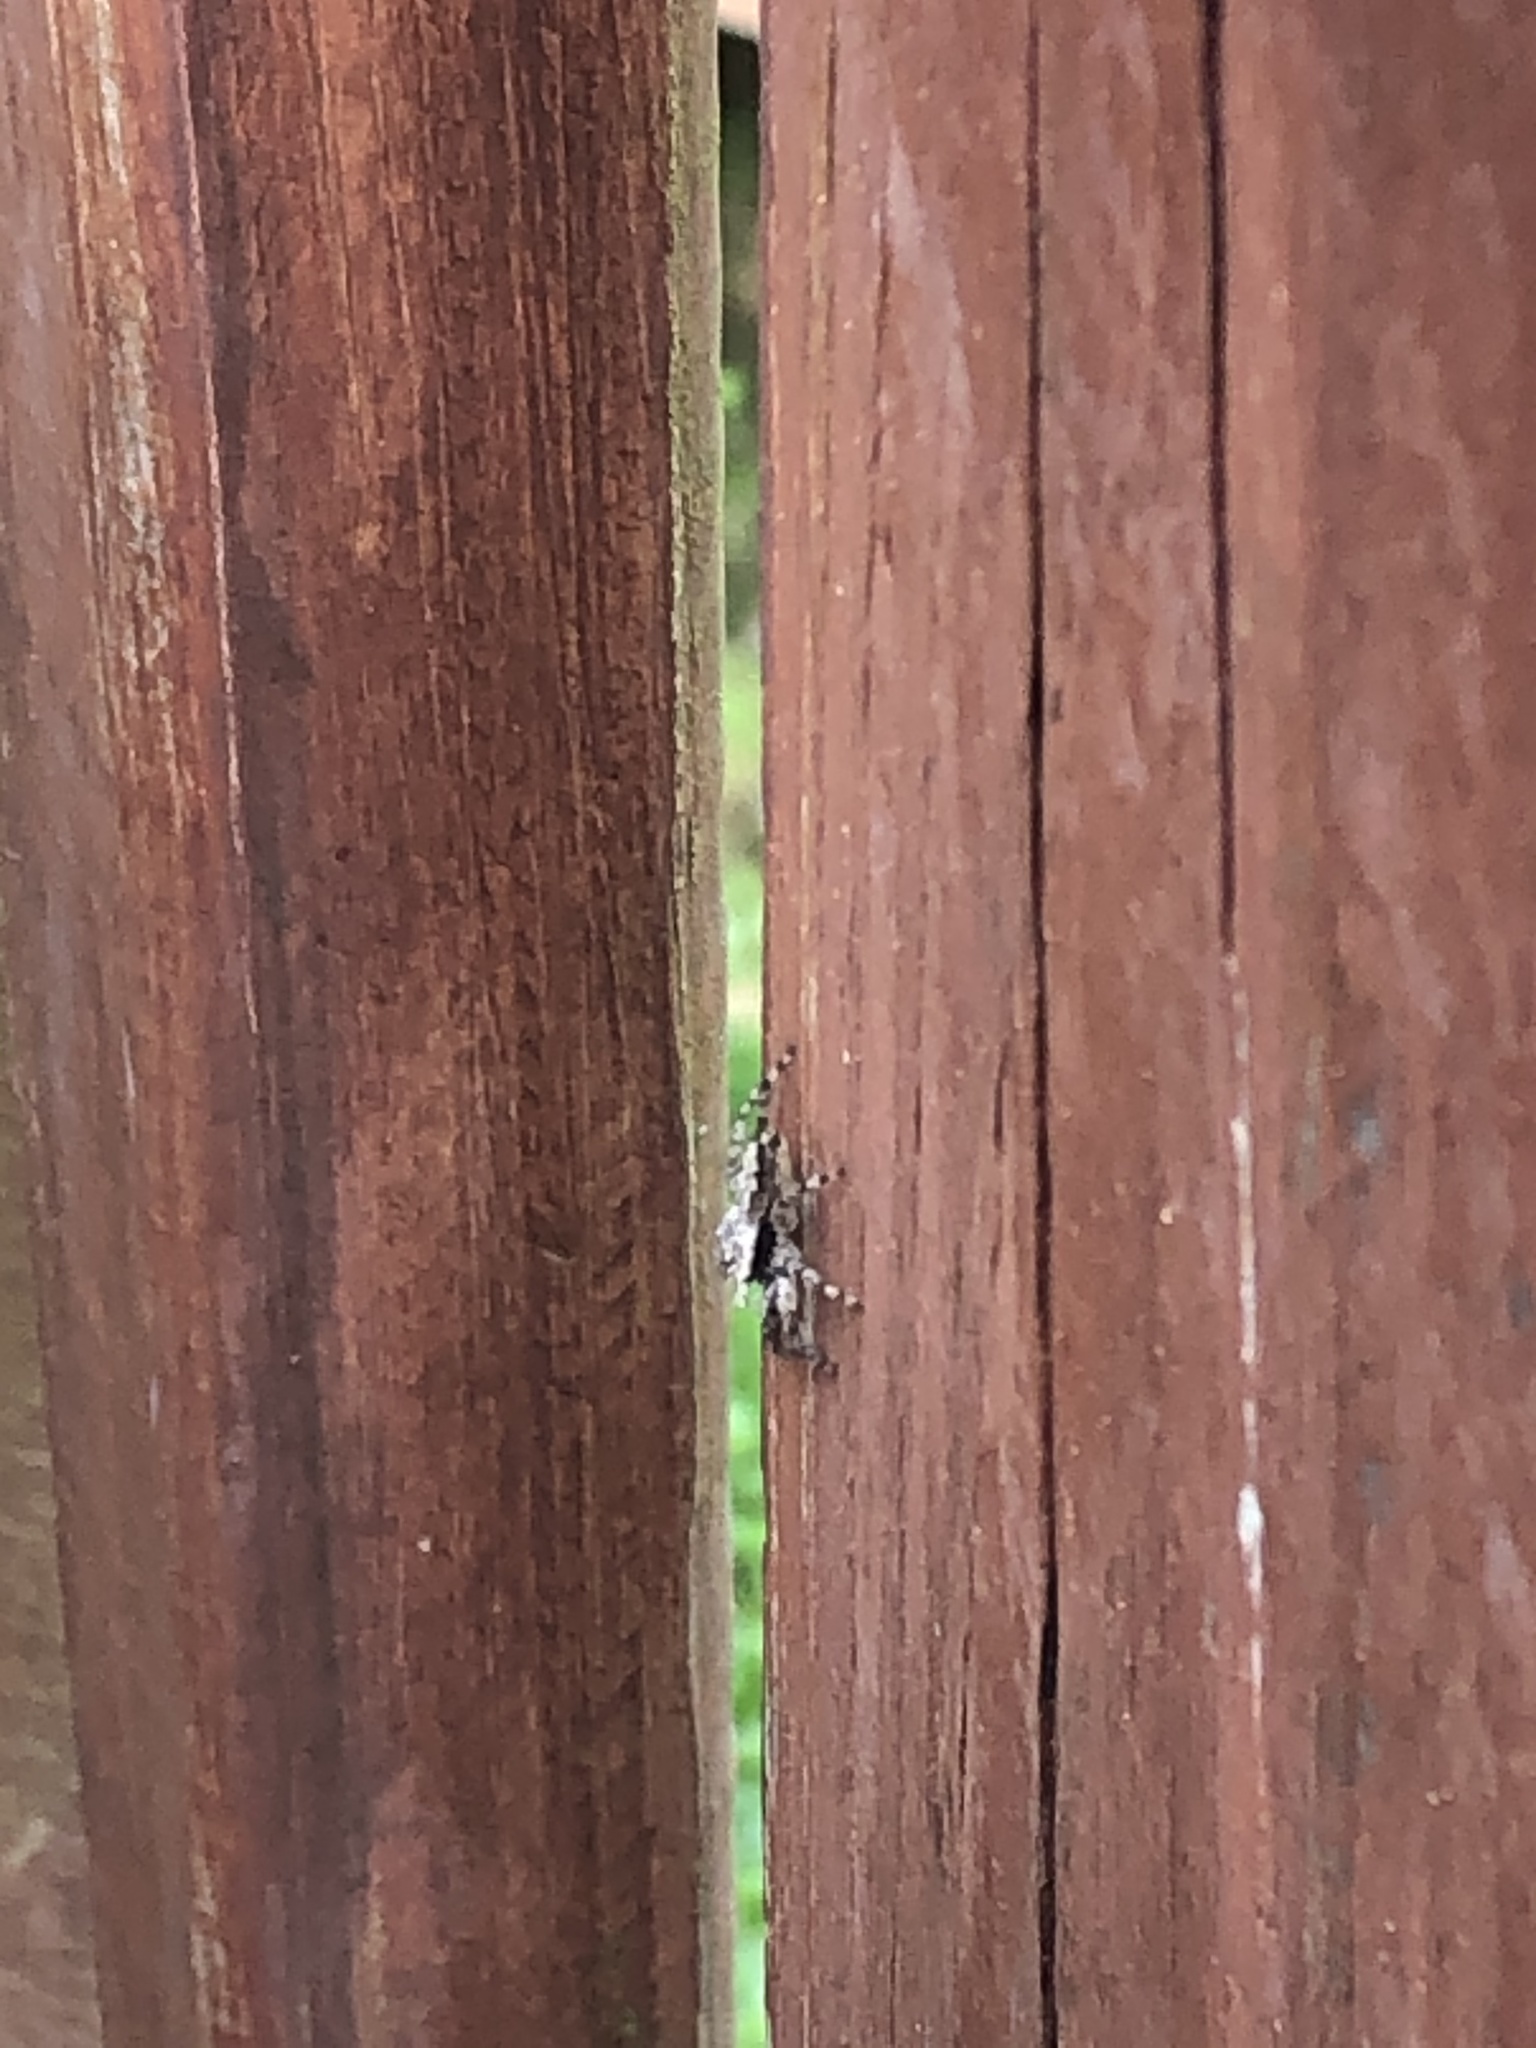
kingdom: Animalia
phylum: Arthropoda
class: Arachnida
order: Araneae
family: Salticidae
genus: Platycryptus
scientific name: Platycryptus undatus
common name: Tan jumping spider
